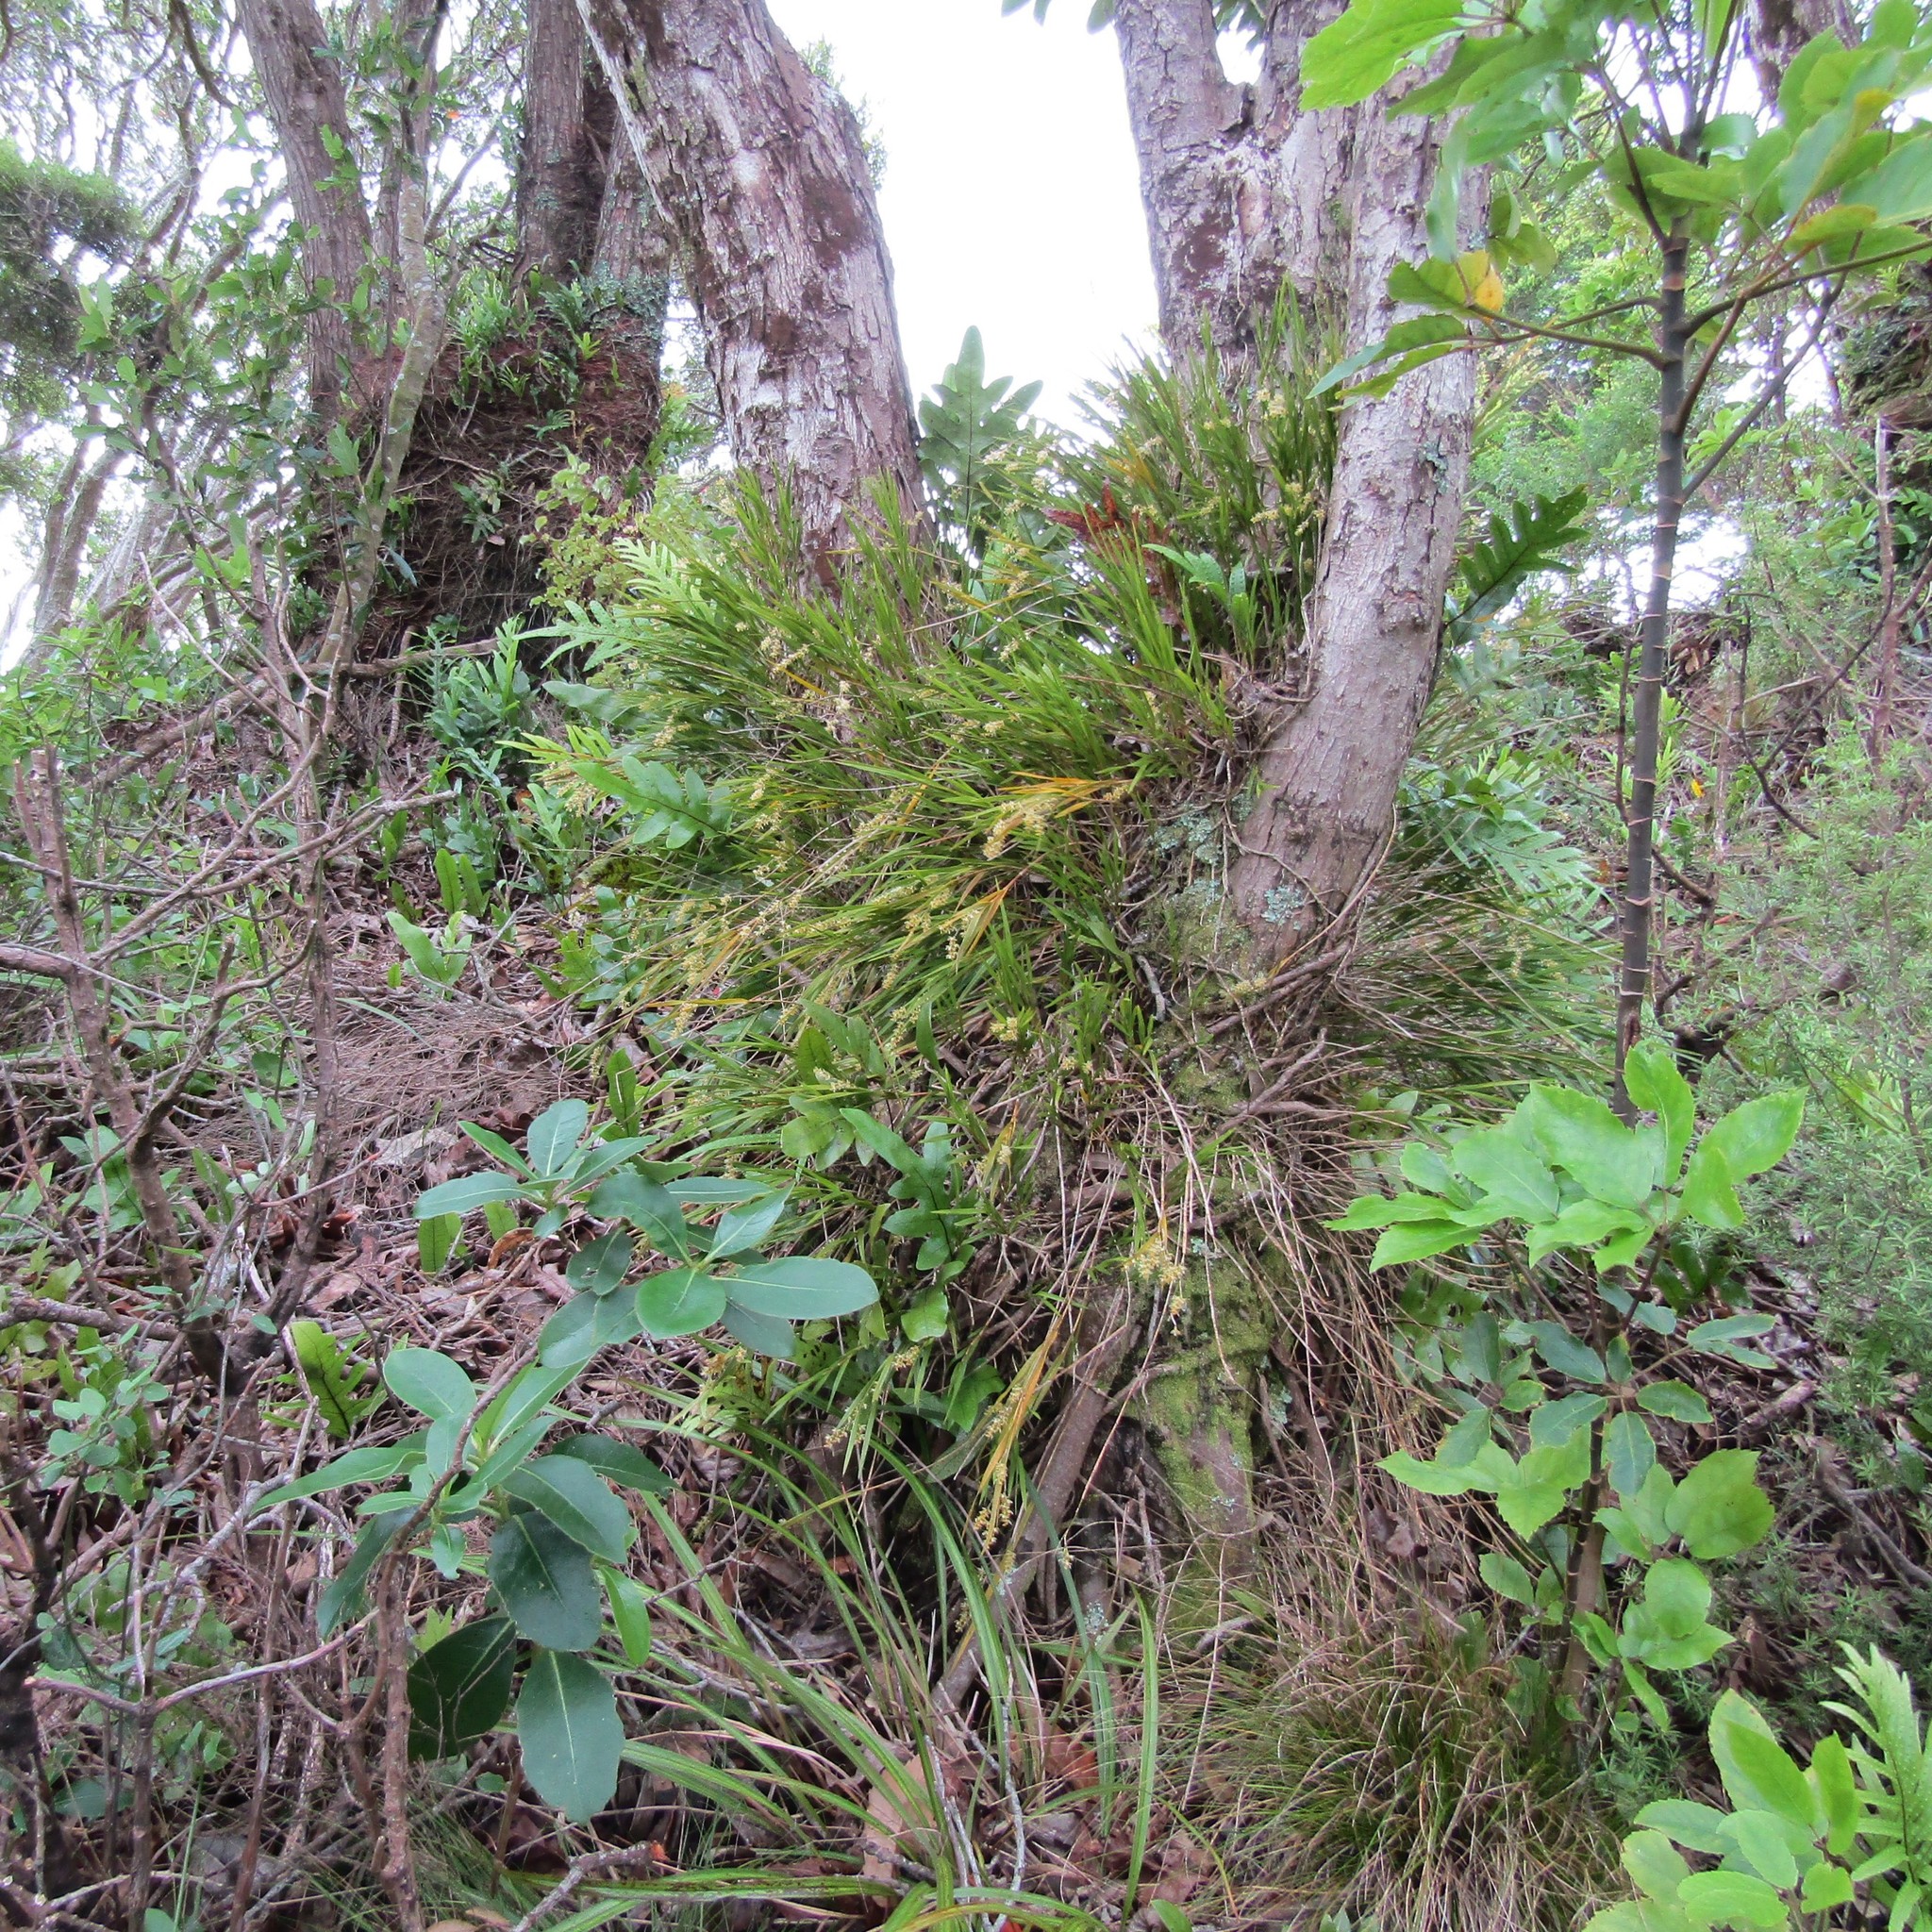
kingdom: Plantae
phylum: Tracheophyta
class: Liliopsida
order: Asparagales
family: Orchidaceae
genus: Earina
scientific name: Earina mucronata
